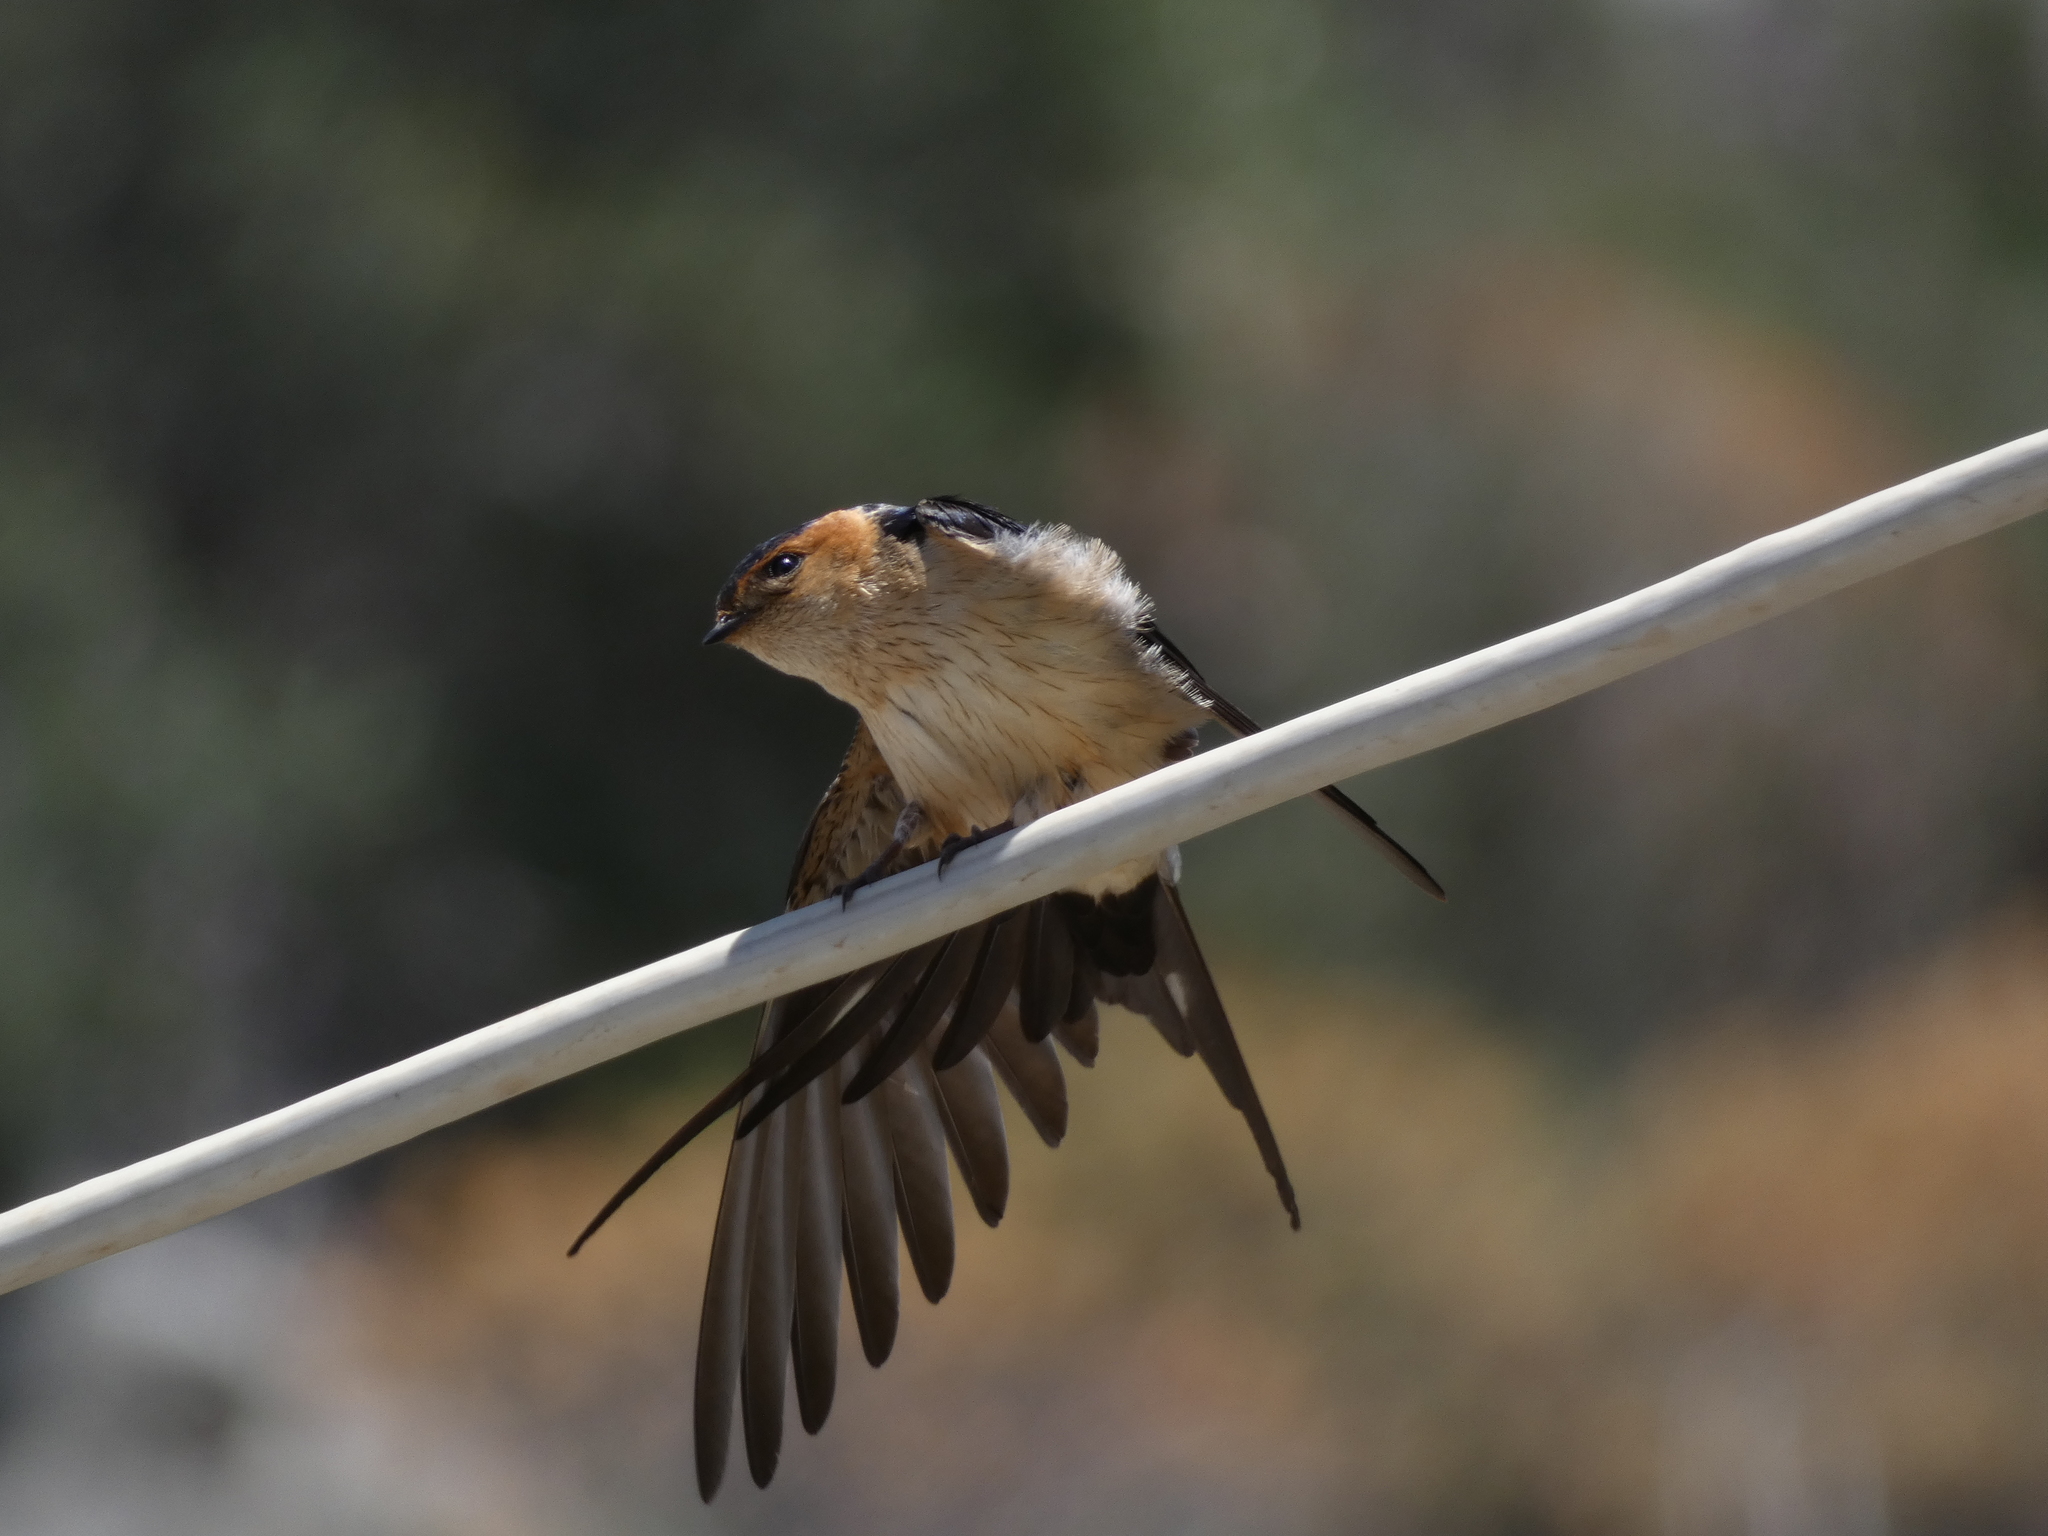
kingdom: Animalia
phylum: Chordata
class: Aves
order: Passeriformes
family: Hirundinidae
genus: Cecropis
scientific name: Cecropis daurica
